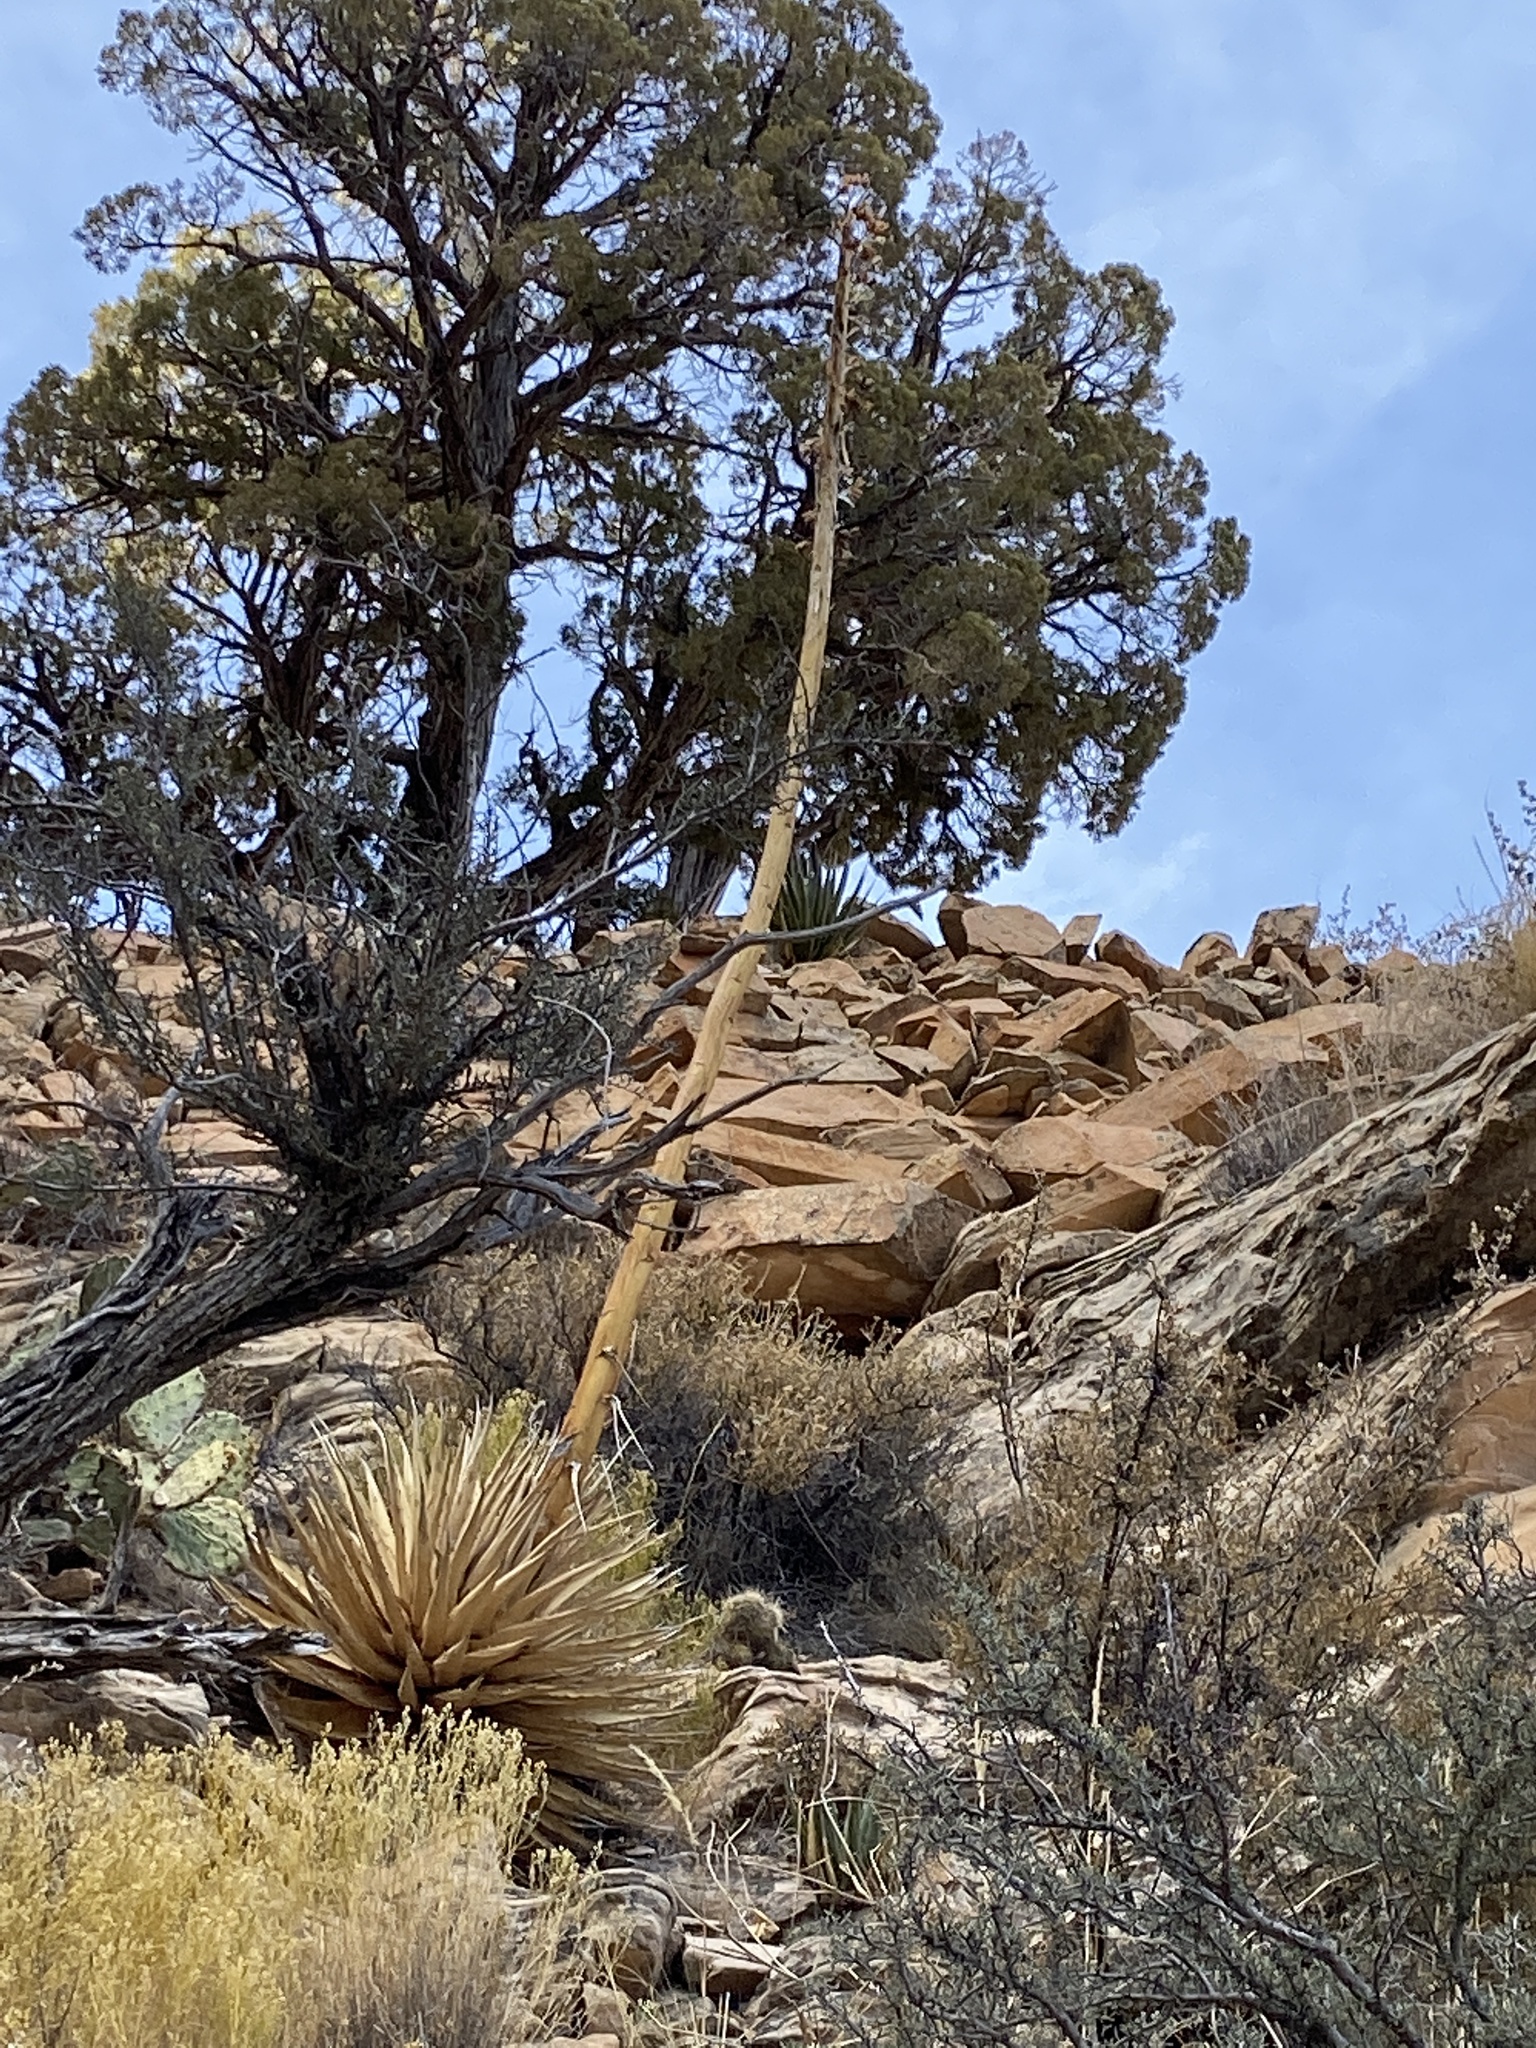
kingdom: Plantae
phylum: Tracheophyta
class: Liliopsida
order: Asparagales
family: Asparagaceae
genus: Agave
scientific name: Agave utahensis
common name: Utah agave
